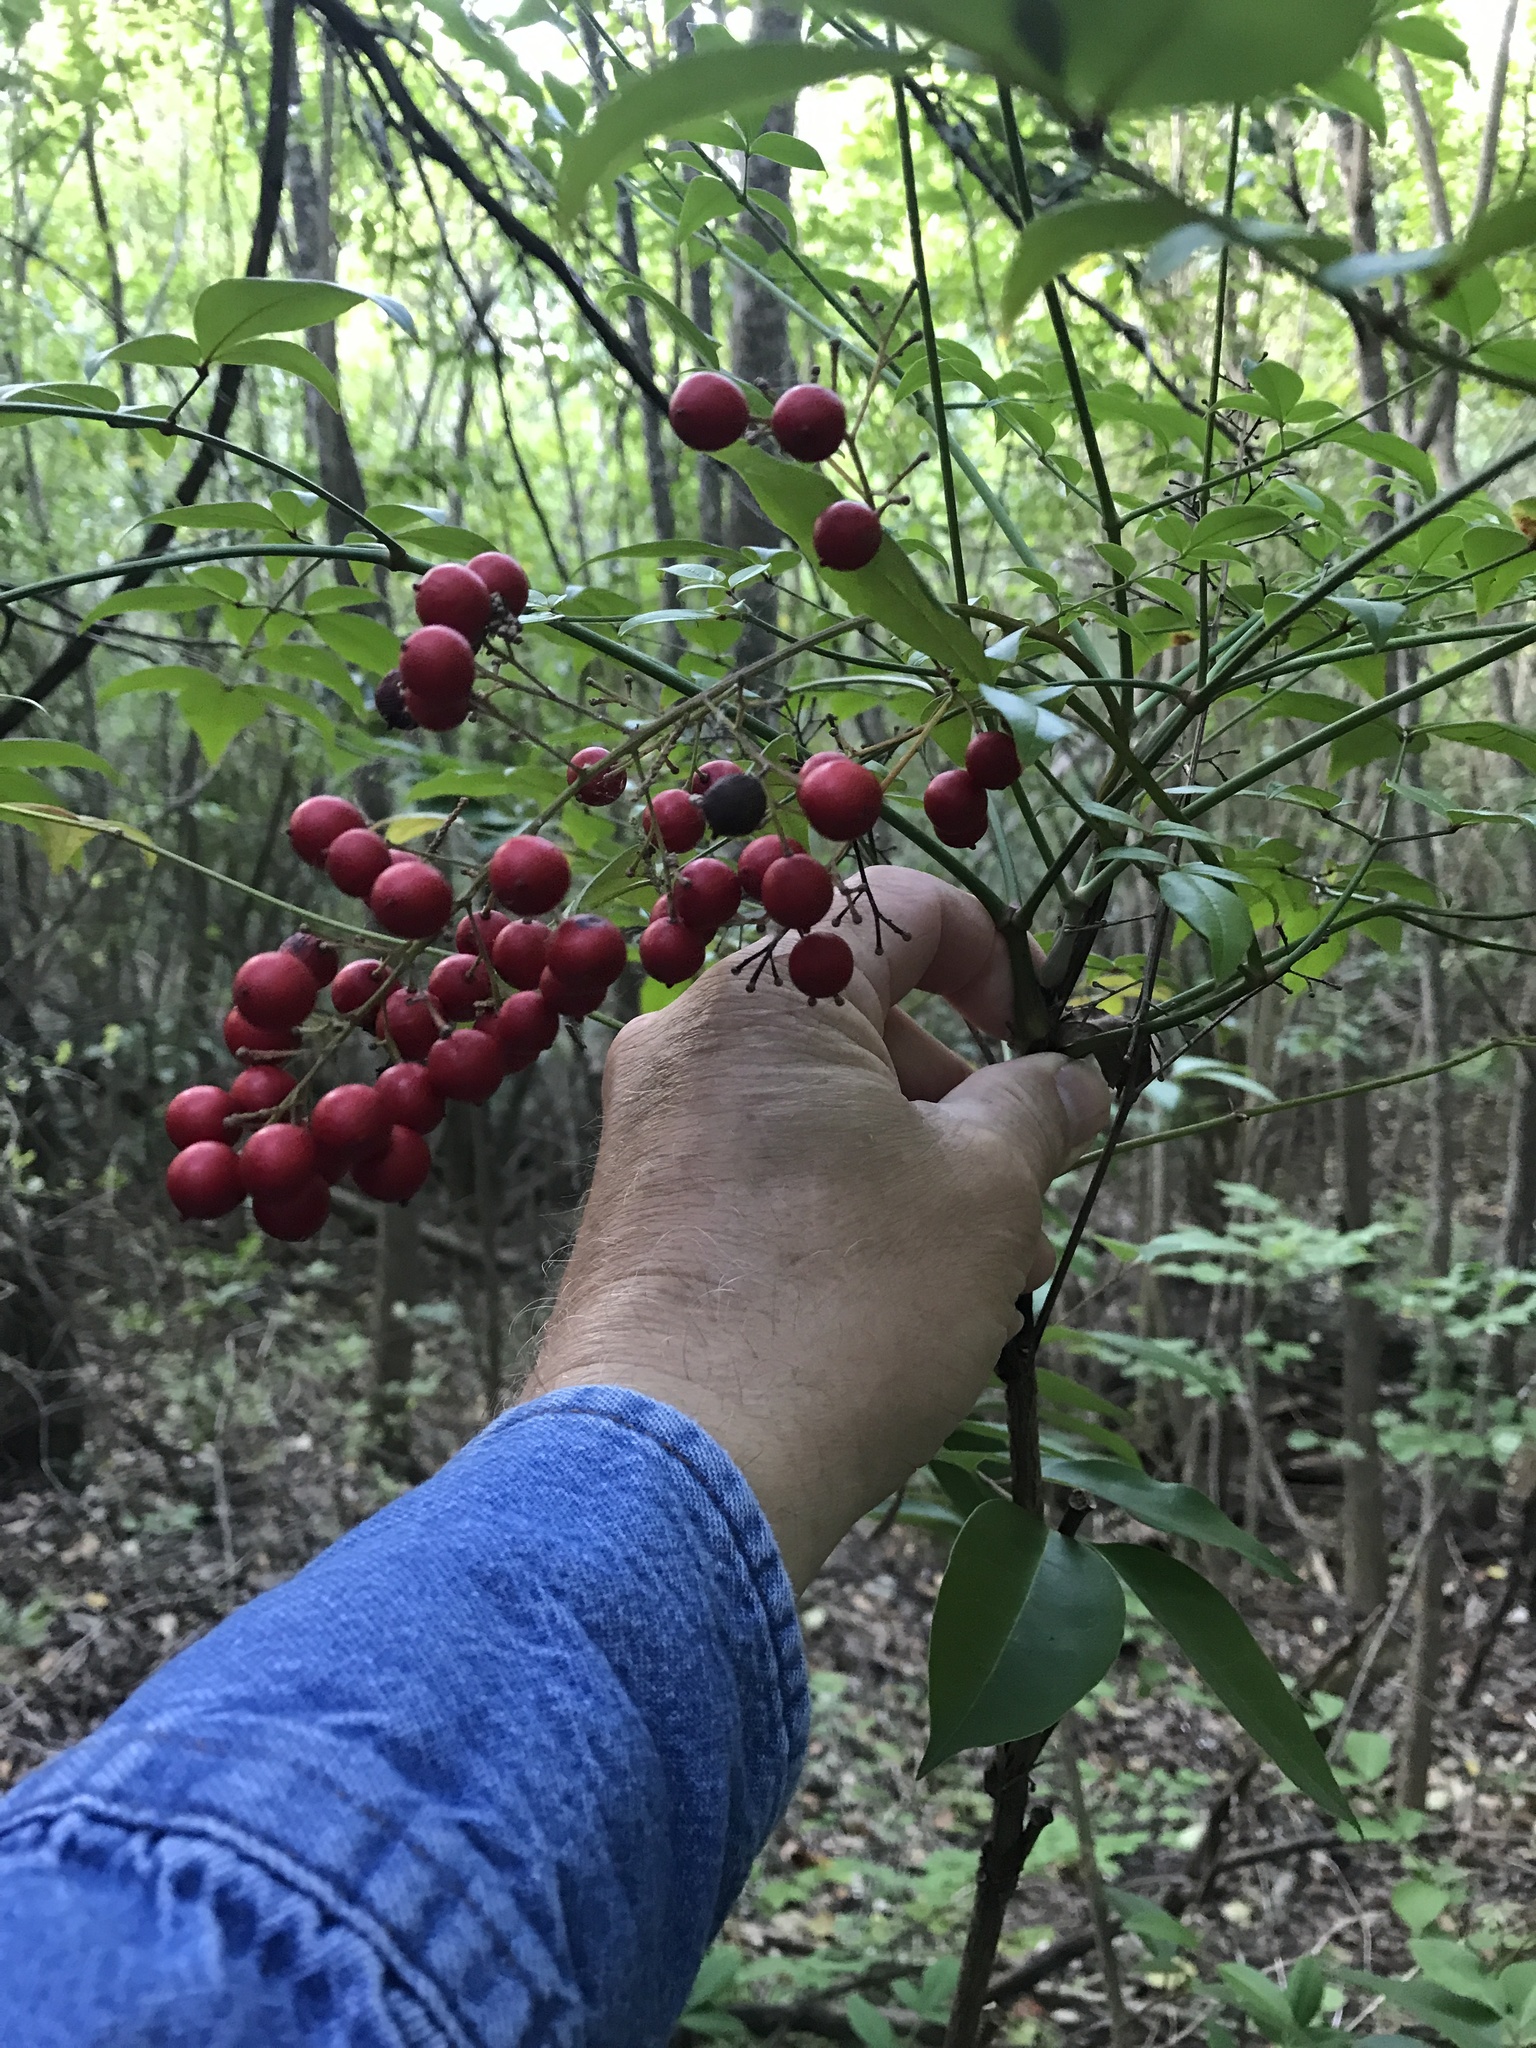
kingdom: Plantae
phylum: Tracheophyta
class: Magnoliopsida
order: Ranunculales
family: Berberidaceae
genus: Nandina
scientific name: Nandina domestica
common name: Sacred bamboo
